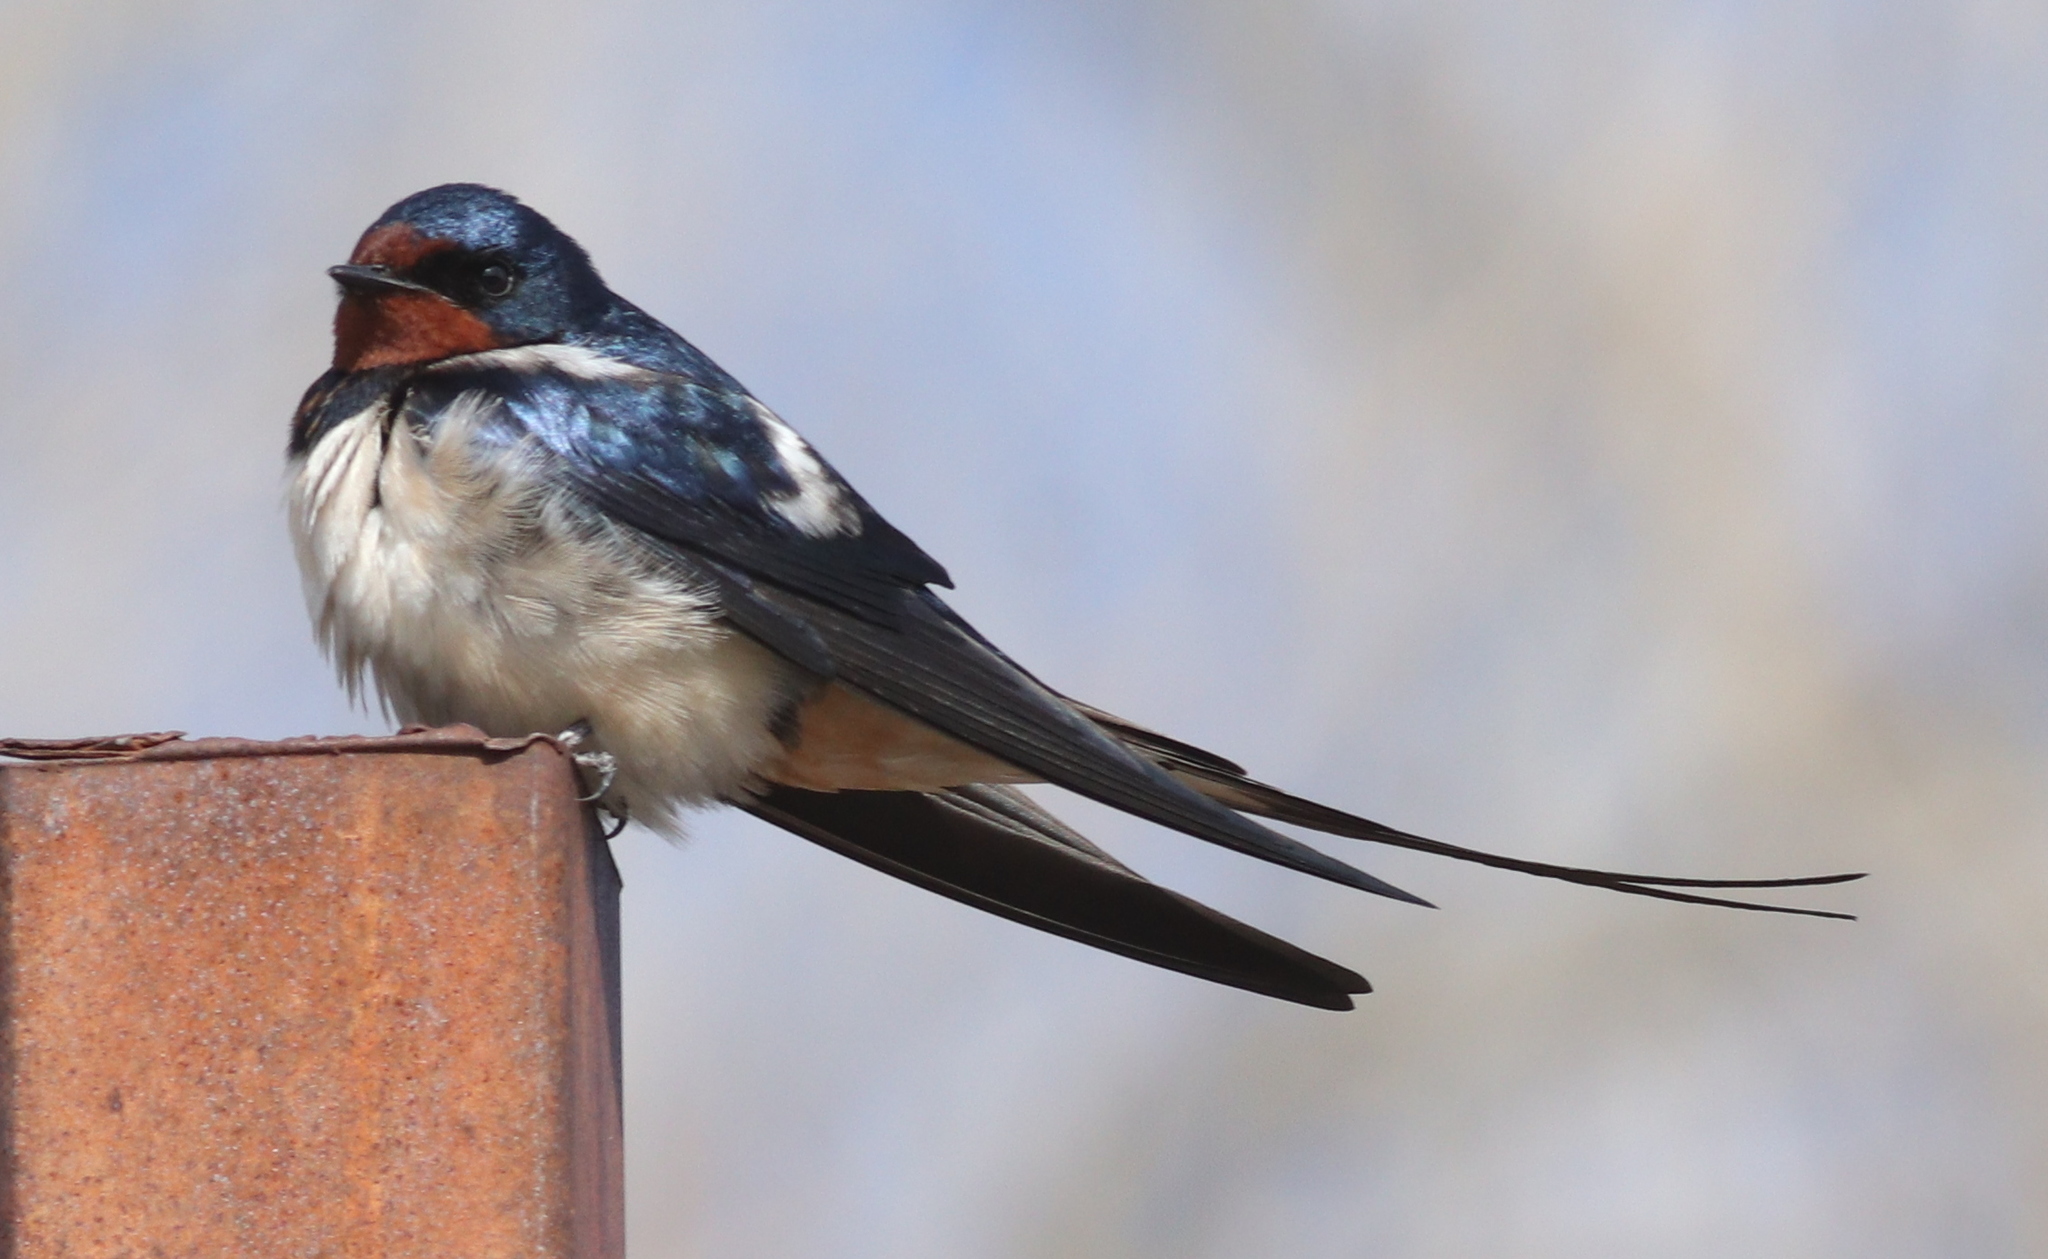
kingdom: Animalia
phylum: Chordata
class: Aves
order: Passeriformes
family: Hirundinidae
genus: Hirundo
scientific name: Hirundo rustica
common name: Barn swallow
